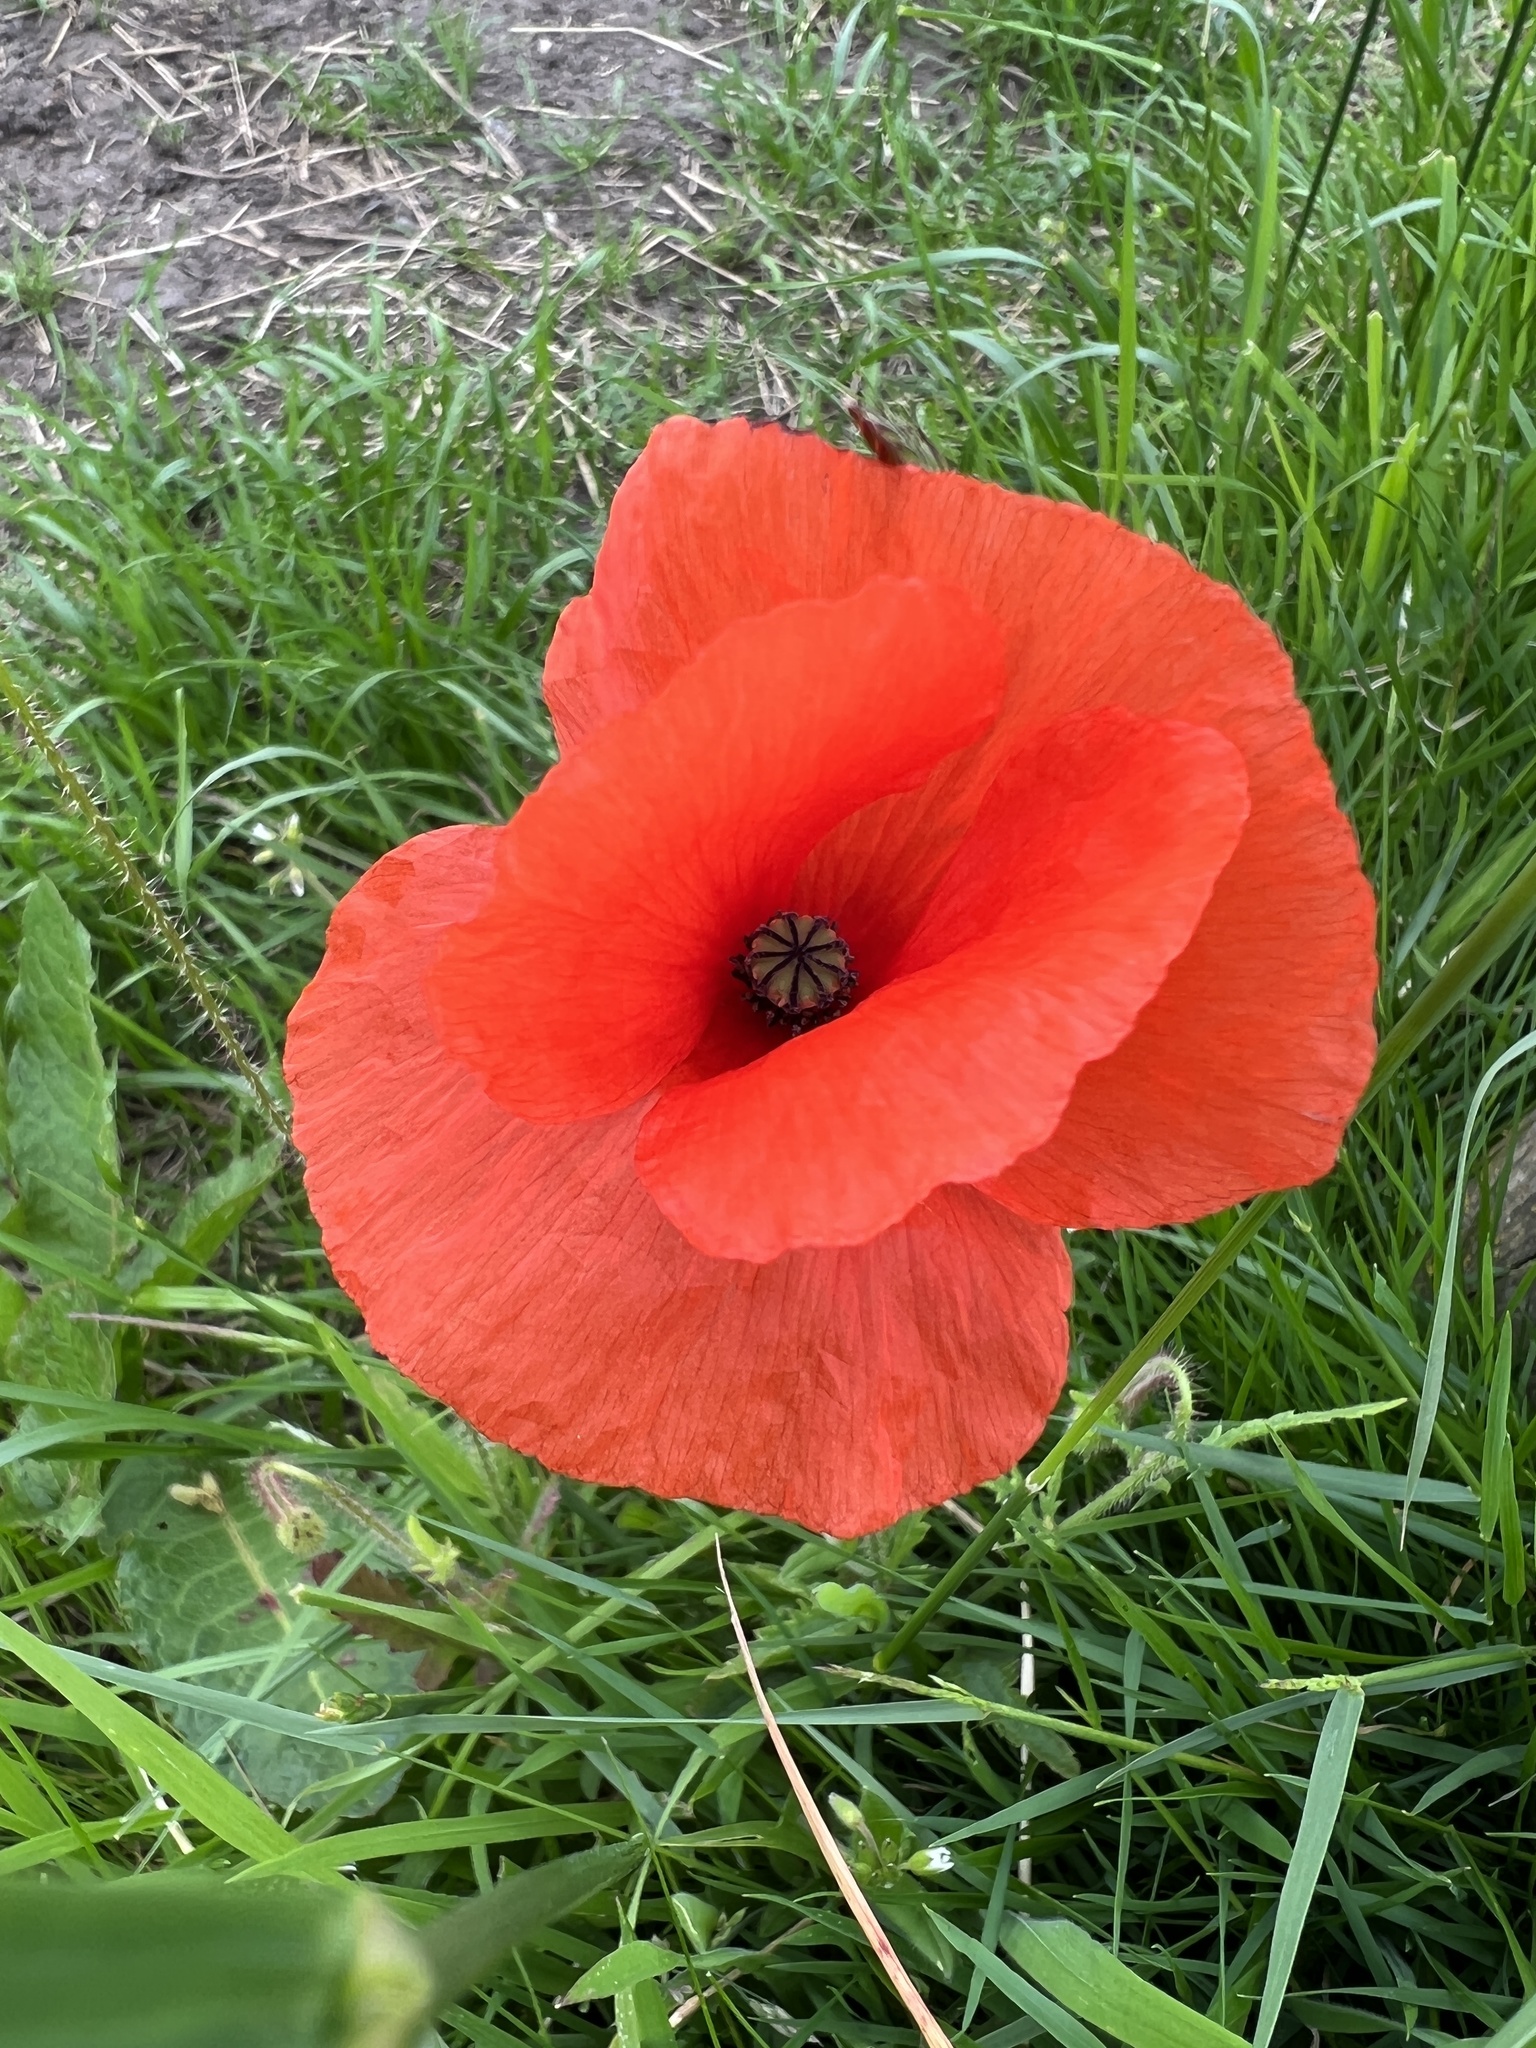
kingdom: Plantae
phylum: Tracheophyta
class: Magnoliopsida
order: Ranunculales
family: Papaveraceae
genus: Papaver
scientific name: Papaver rhoeas
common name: Corn poppy
